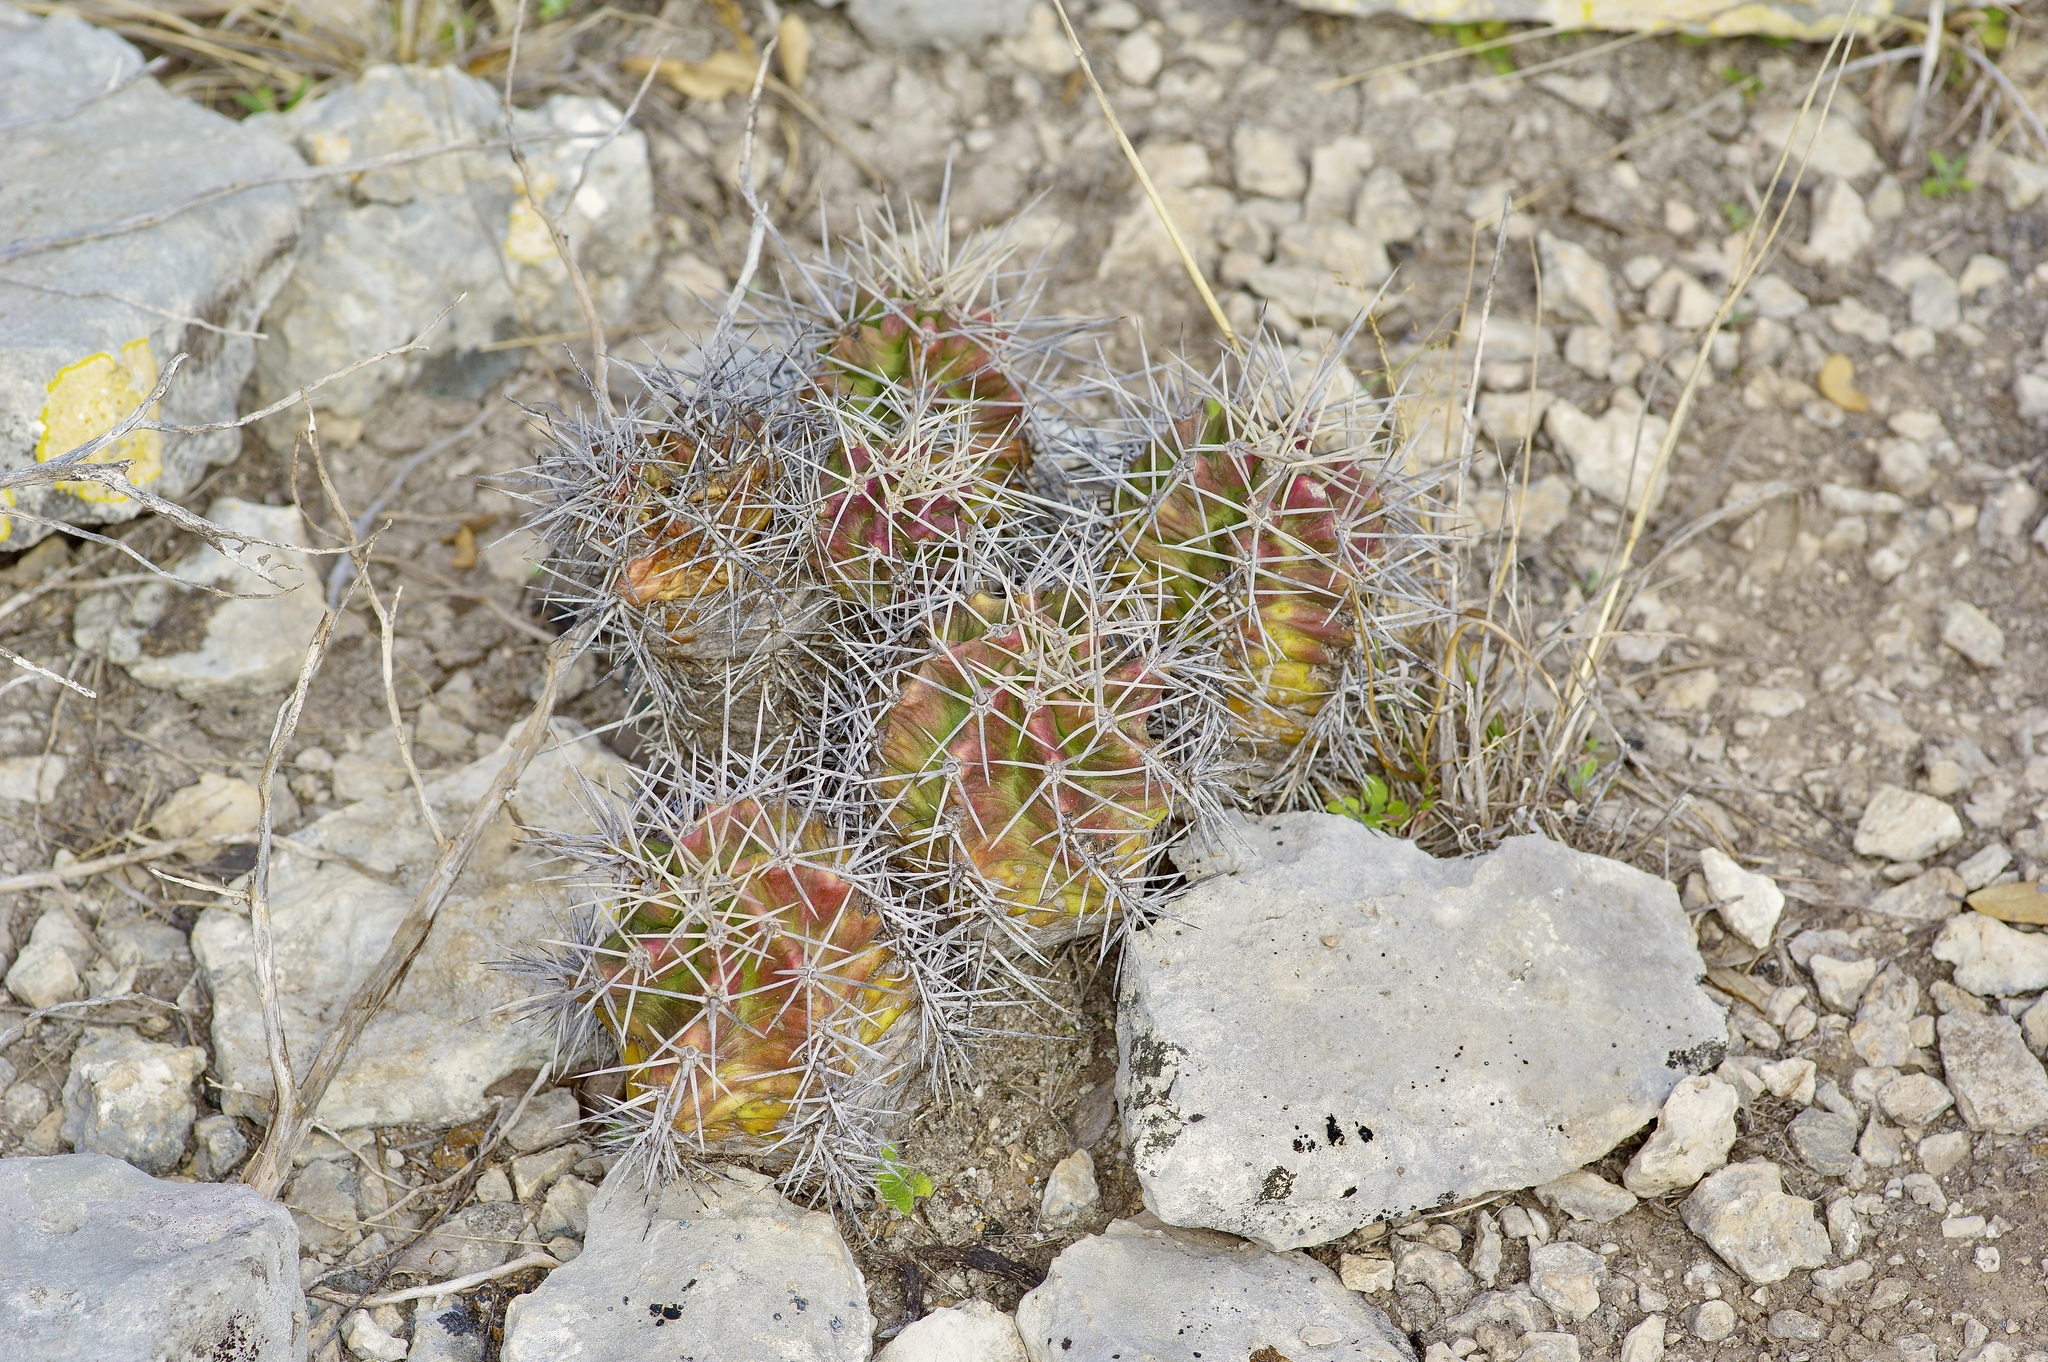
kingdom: Plantae
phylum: Tracheophyta
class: Magnoliopsida
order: Caryophyllales
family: Cactaceae
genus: Echinocereus
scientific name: Echinocereus coccineus
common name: Scarlet hedgehog cactus
